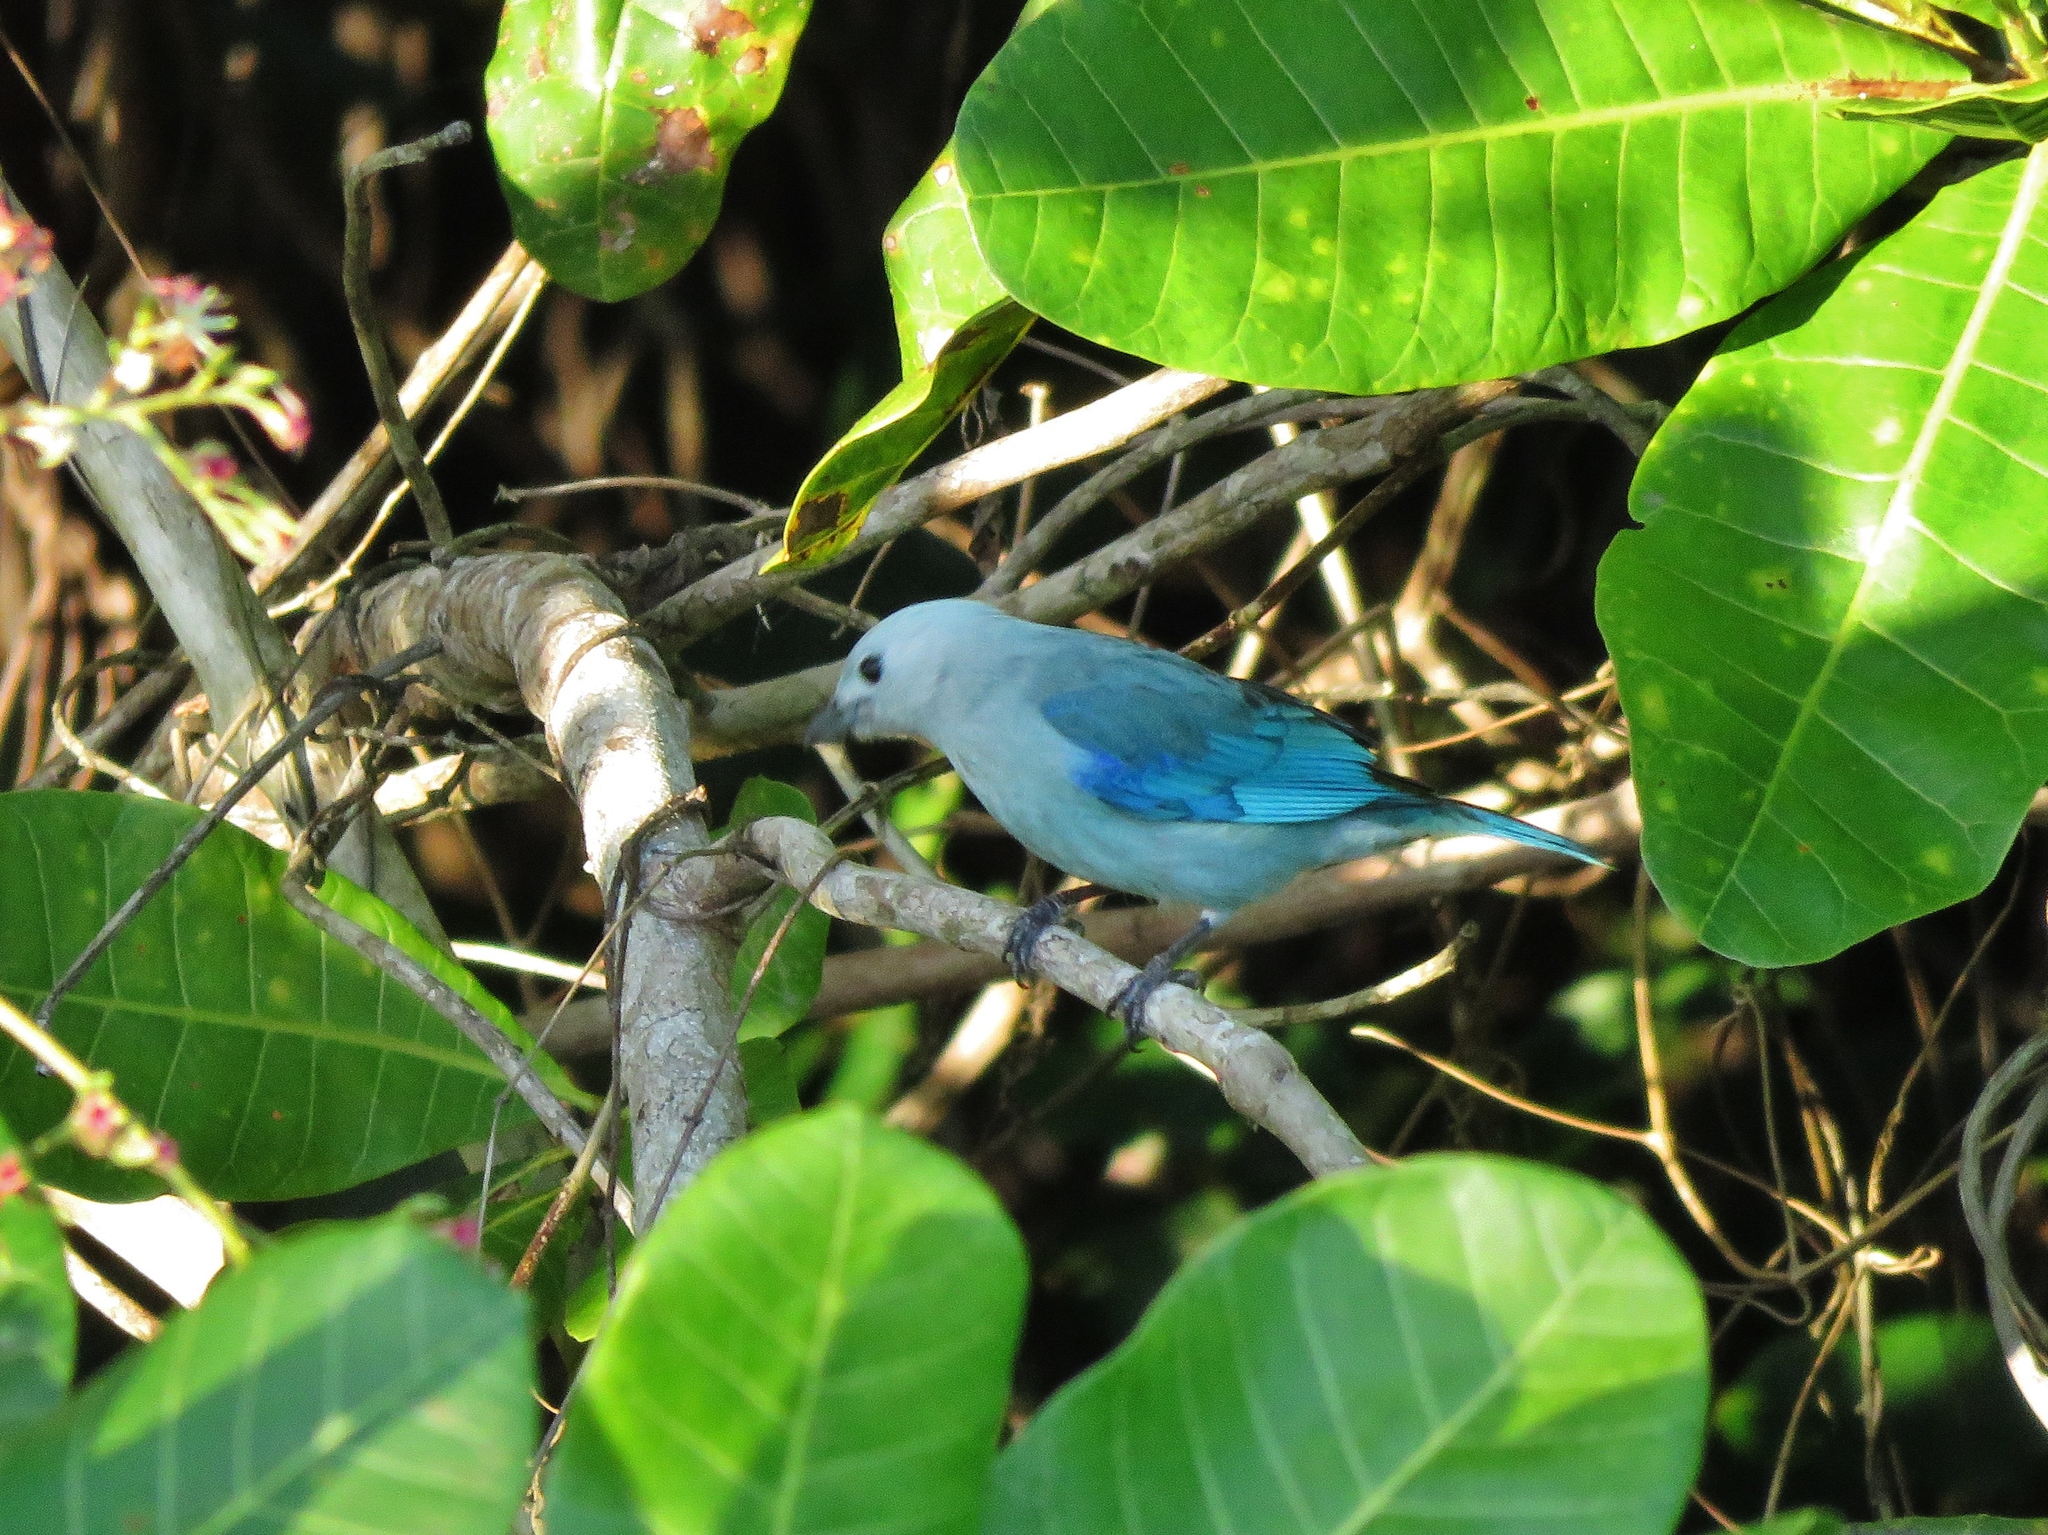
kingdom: Animalia
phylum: Chordata
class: Aves
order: Passeriformes
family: Thraupidae
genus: Thraupis
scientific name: Thraupis episcopus
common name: Blue-grey tanager
